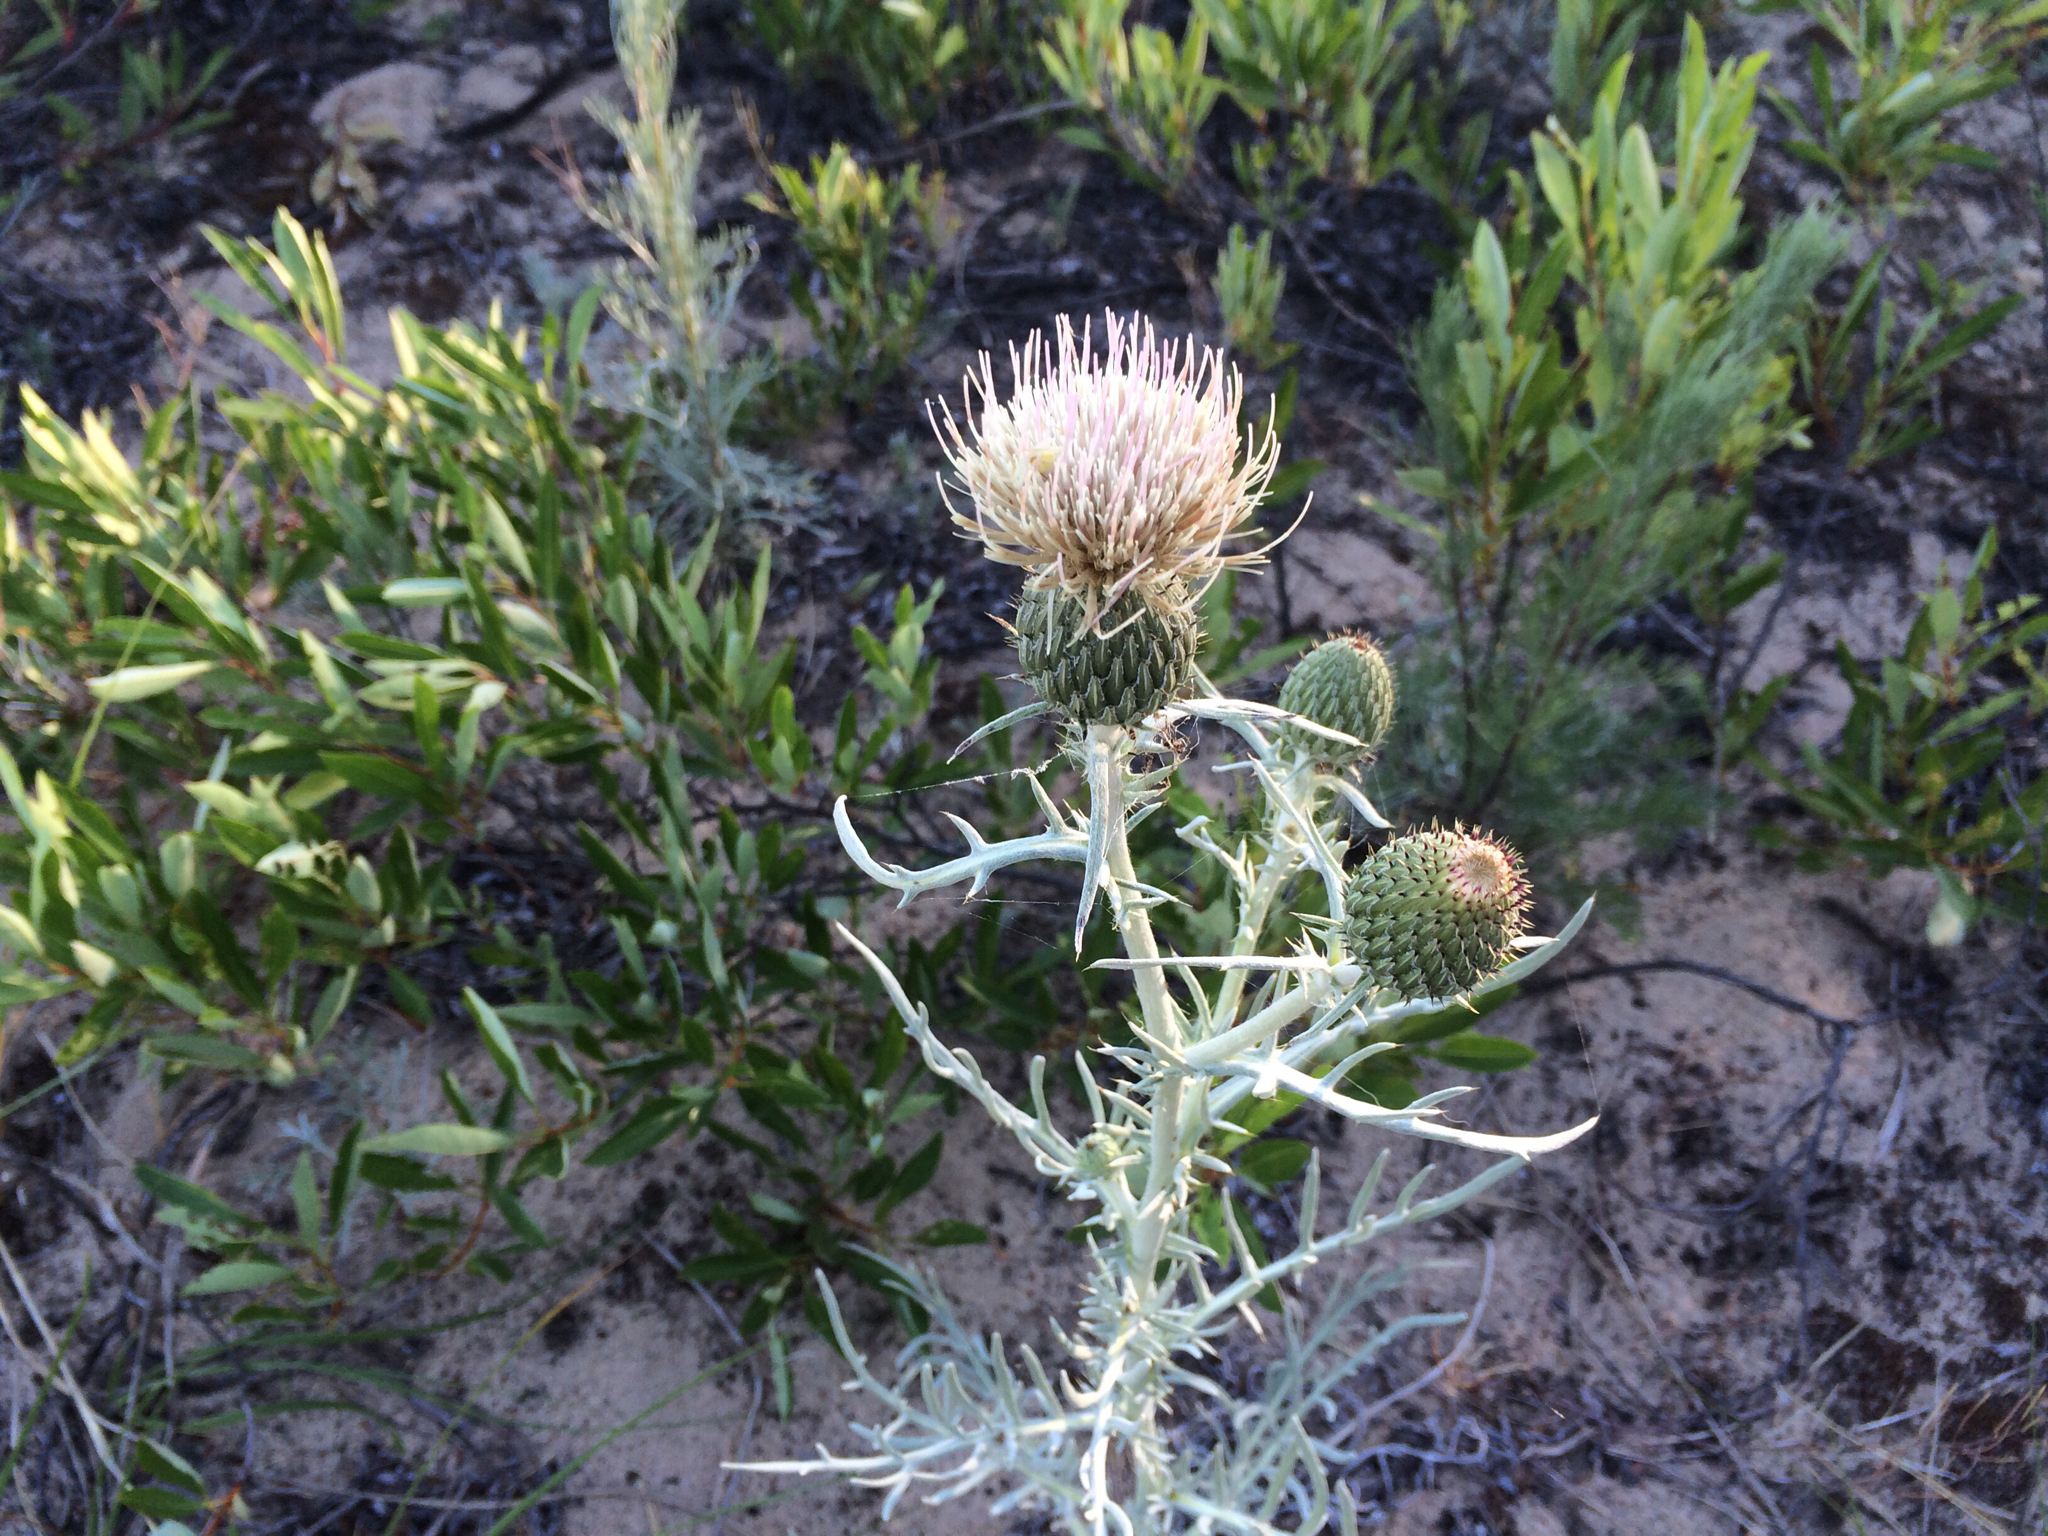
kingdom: Plantae
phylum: Tracheophyta
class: Magnoliopsida
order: Asterales
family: Asteraceae
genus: Cirsium
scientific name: Cirsium pitcheri
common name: Dune thistle
